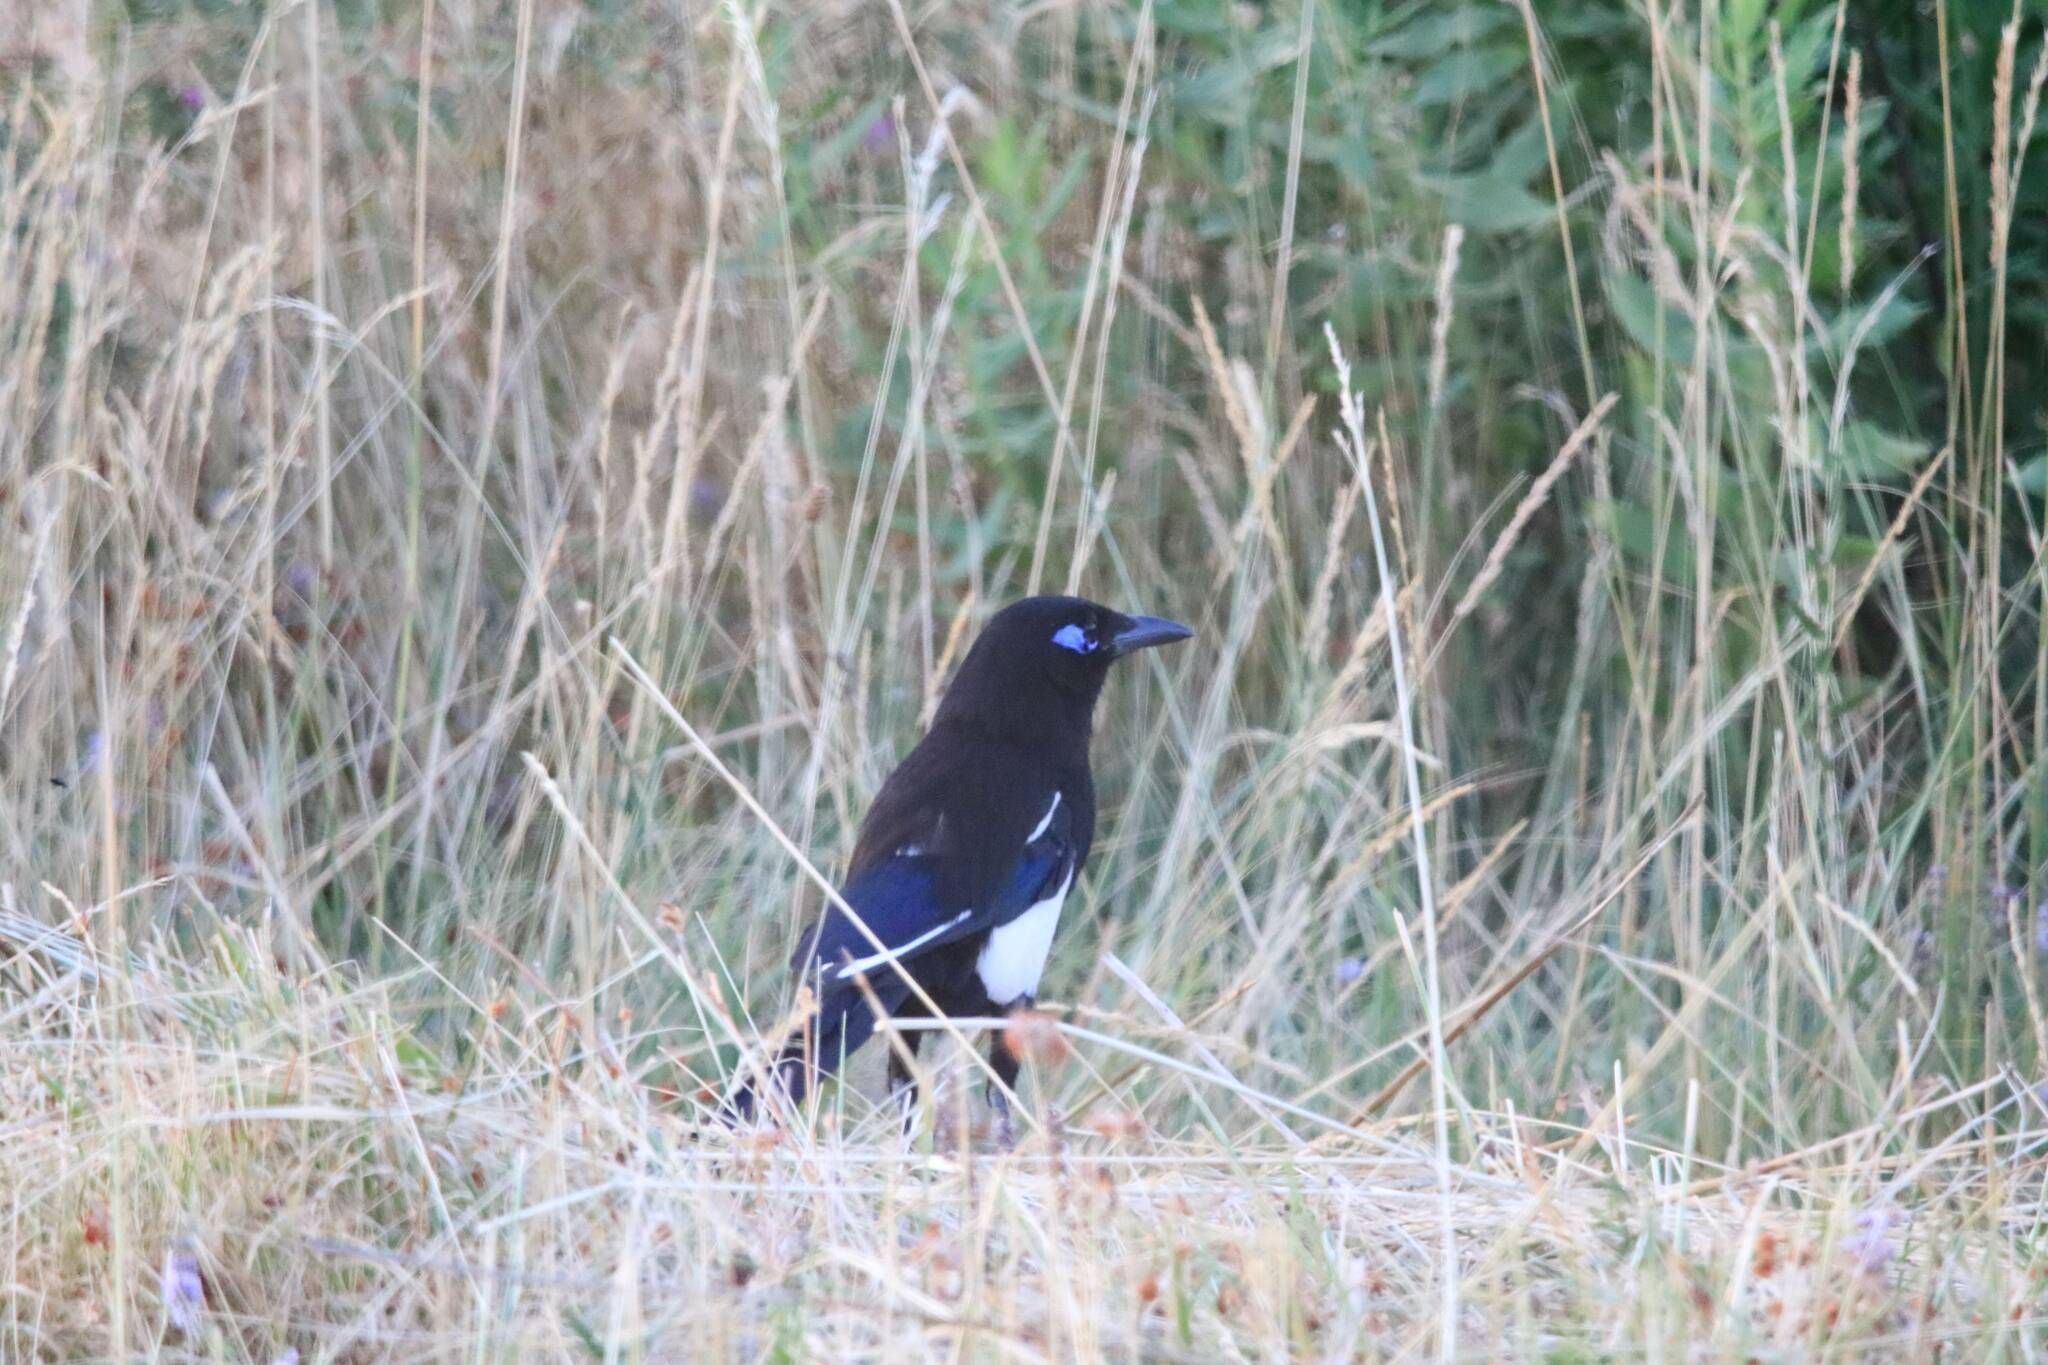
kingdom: Animalia
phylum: Chordata
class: Aves
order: Passeriformes
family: Corvidae
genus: Pica
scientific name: Pica mauritanica
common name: Maghreb magpie
